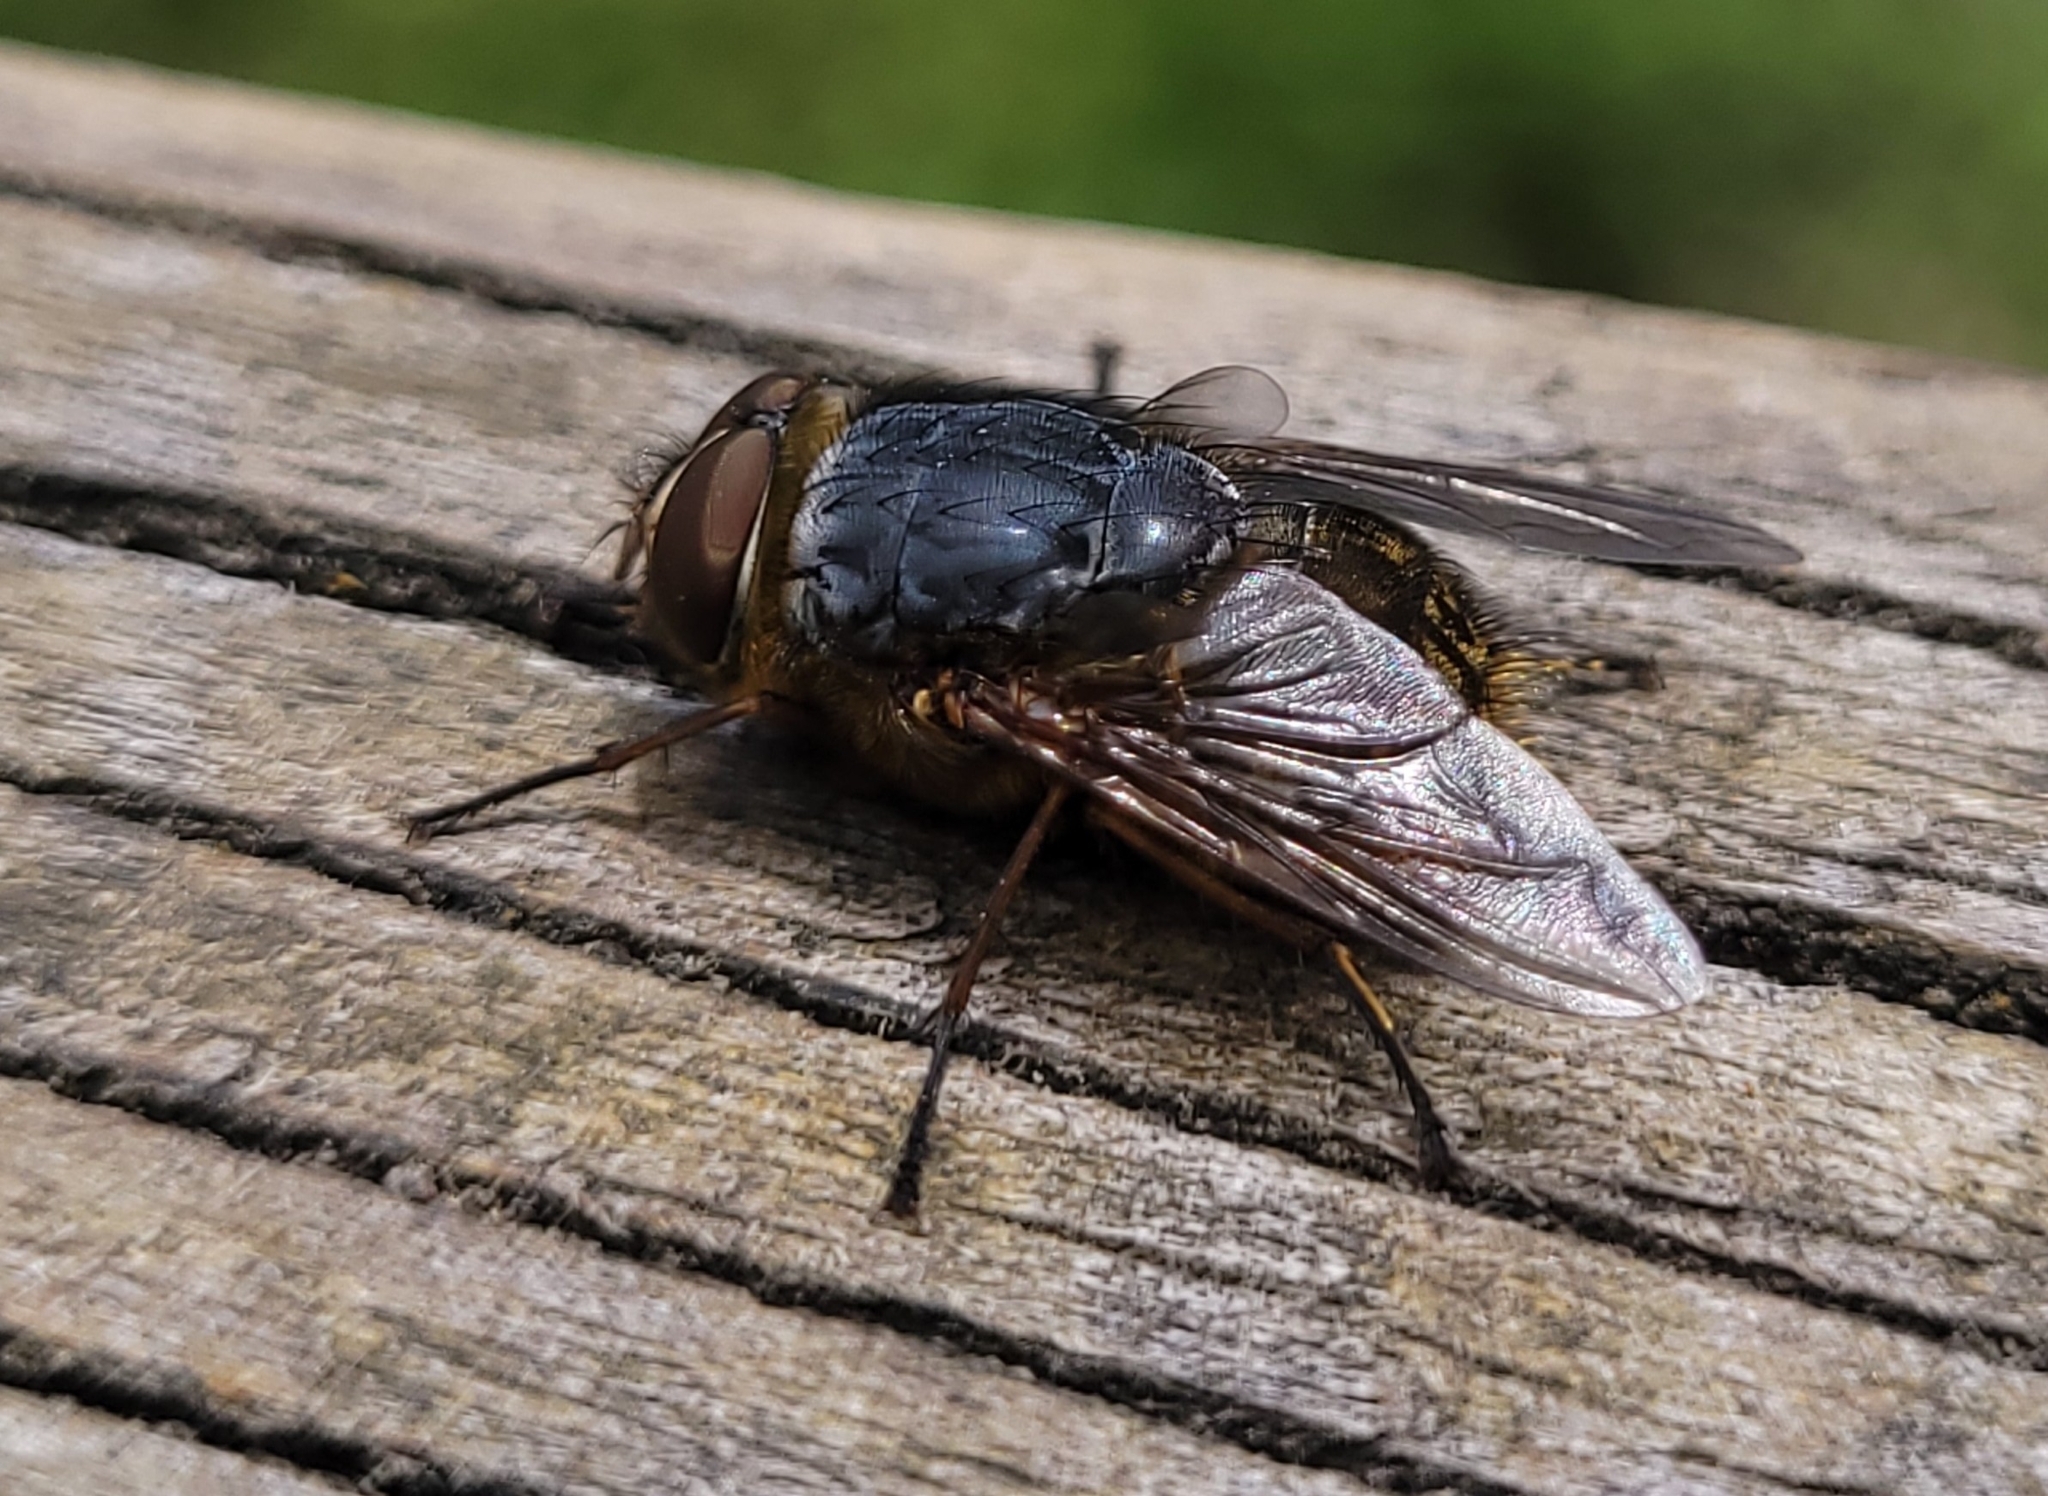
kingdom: Animalia
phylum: Arthropoda
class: Insecta
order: Diptera
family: Calliphoridae
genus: Calliphora
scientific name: Calliphora stygia
